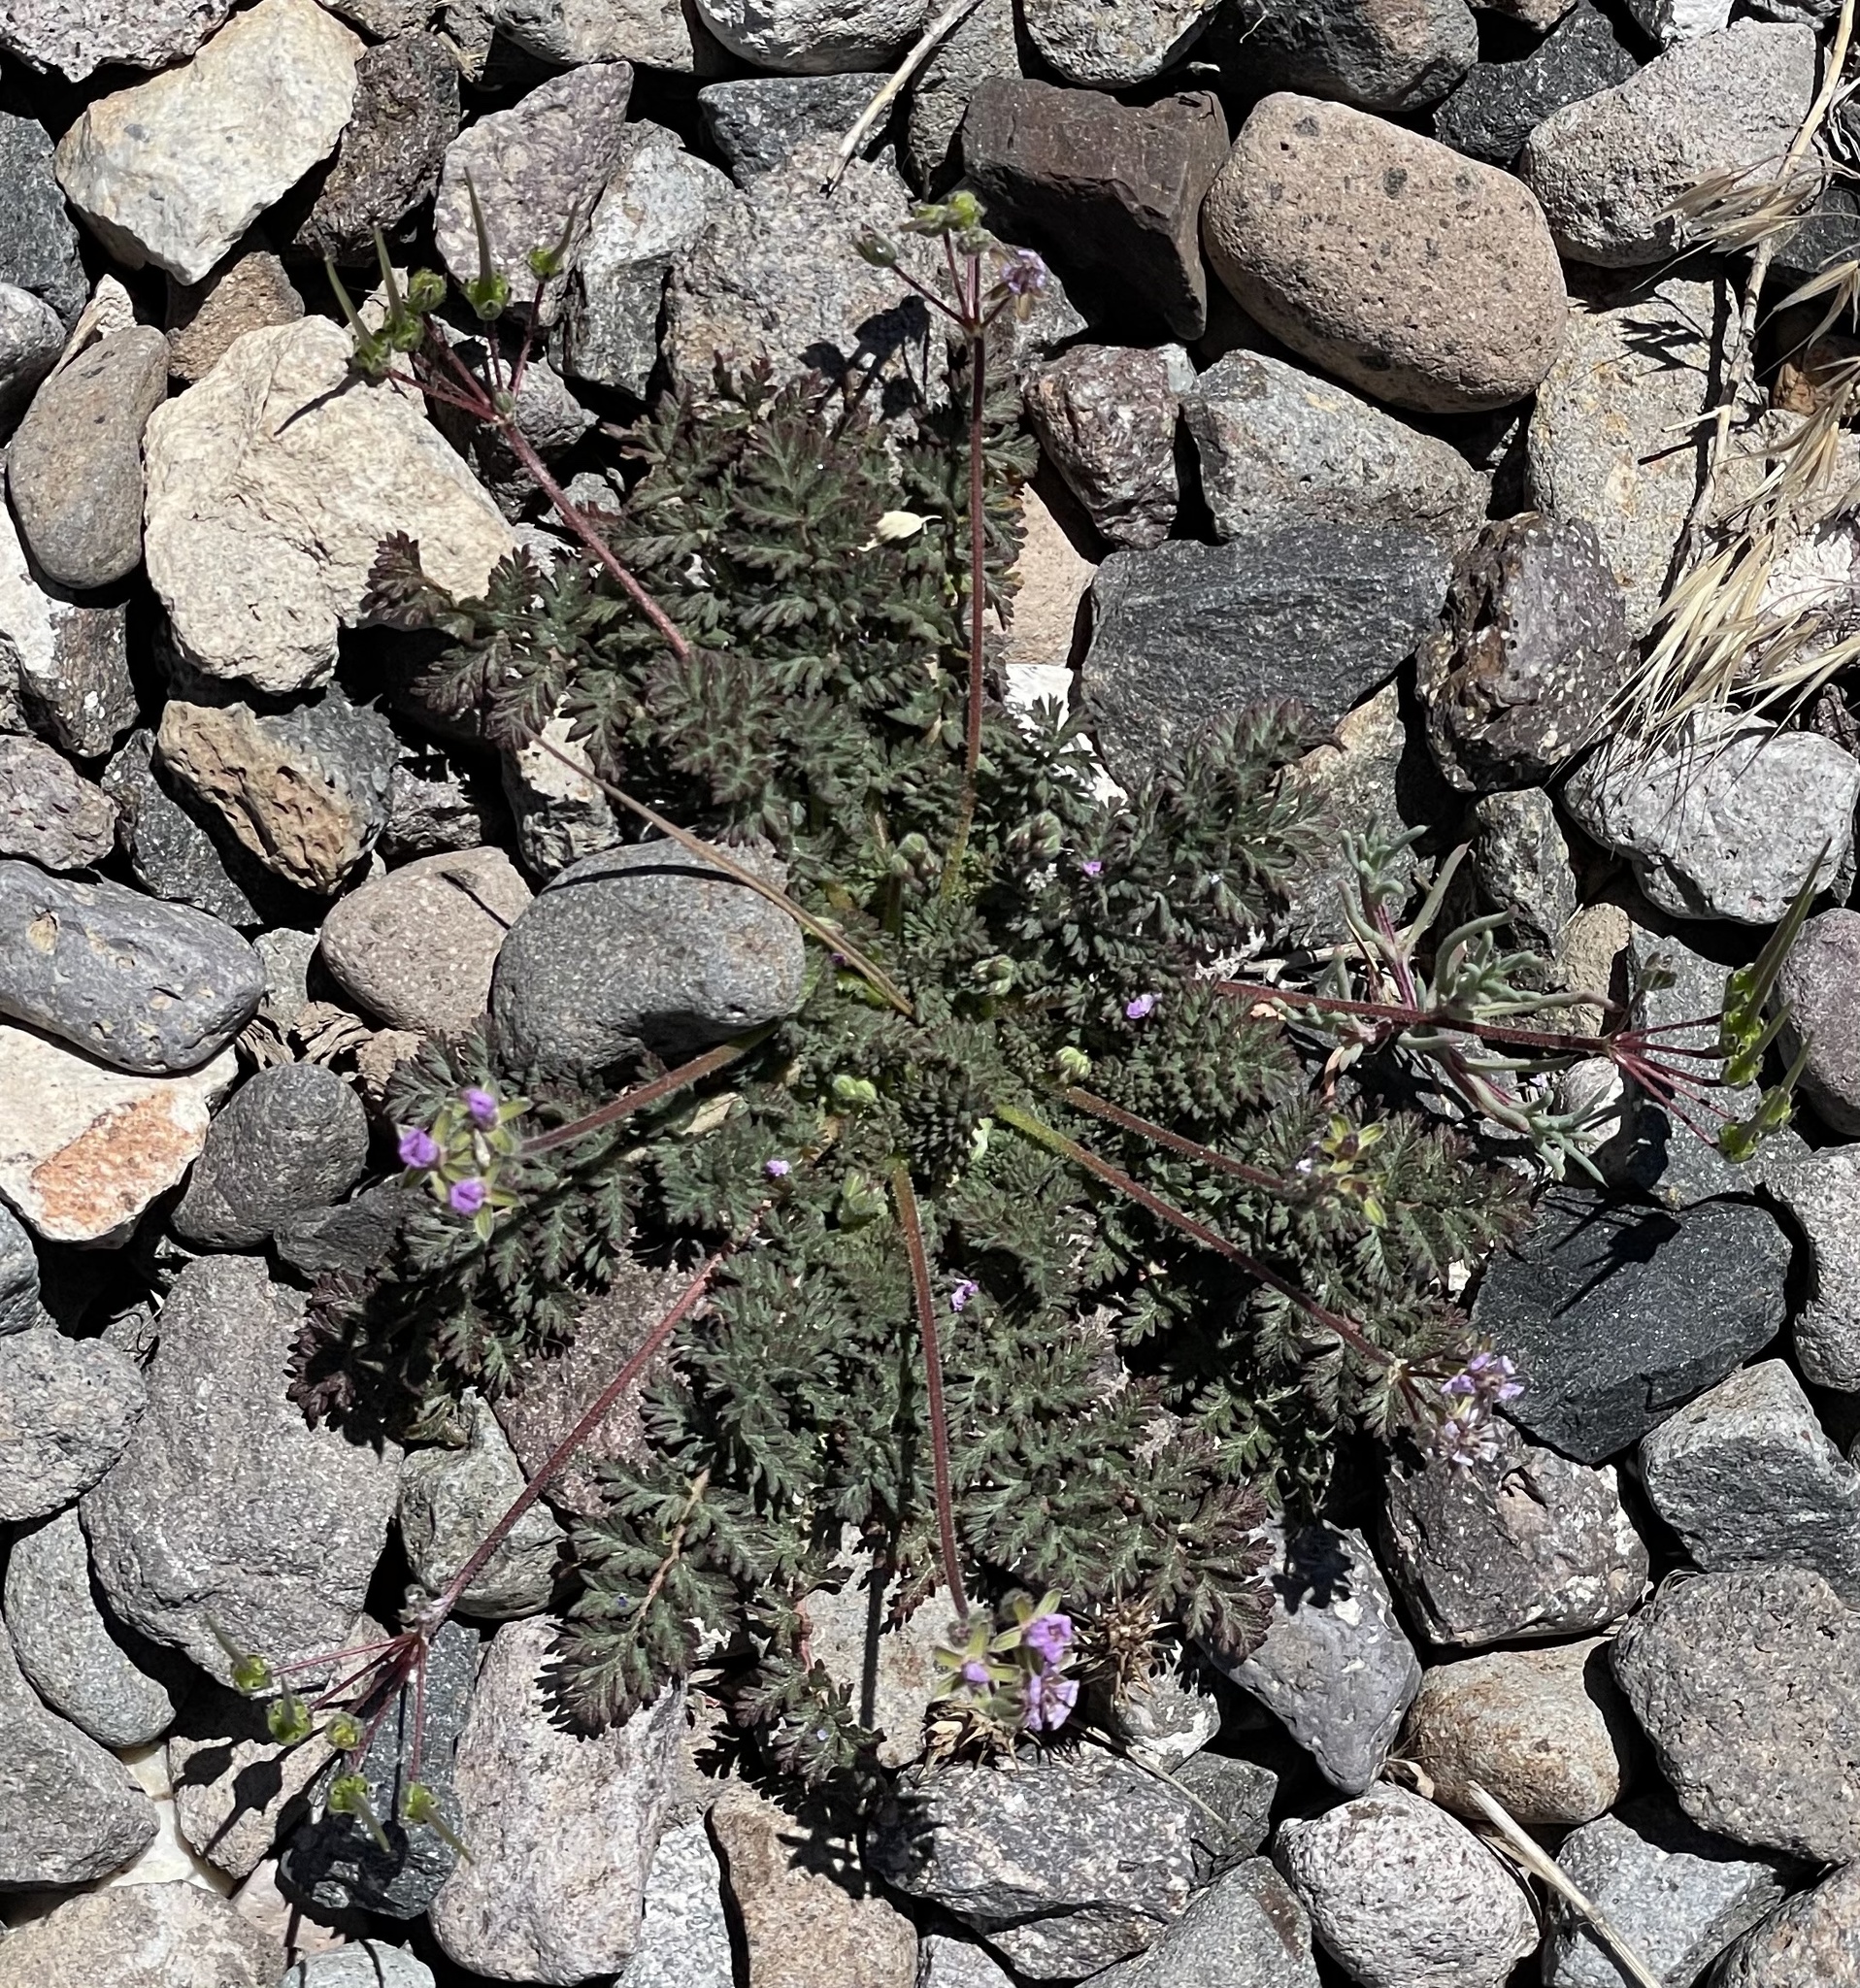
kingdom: Plantae
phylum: Tracheophyta
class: Magnoliopsida
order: Geraniales
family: Geraniaceae
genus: Erodium
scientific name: Erodium cicutarium
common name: Common stork's-bill
